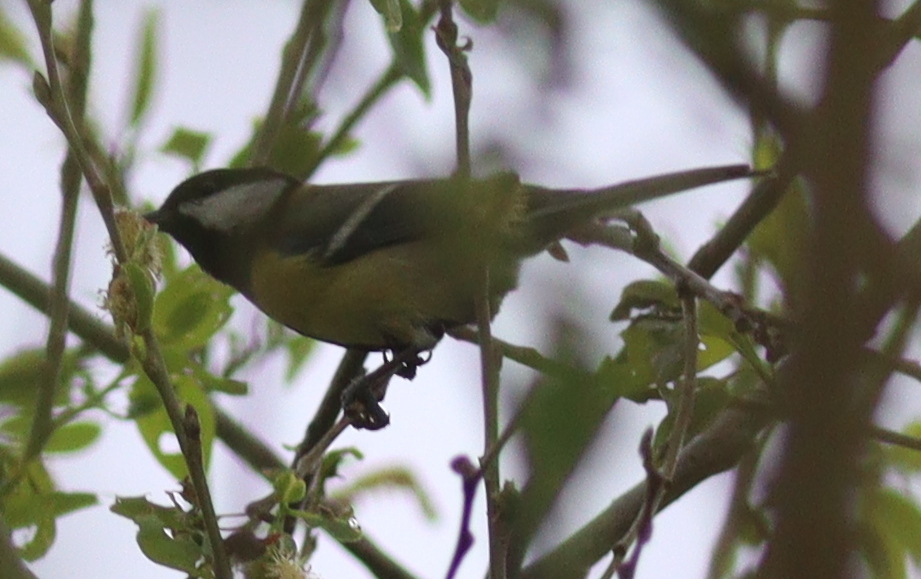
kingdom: Animalia
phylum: Chordata
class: Aves
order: Passeriformes
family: Paridae
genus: Parus
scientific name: Parus major
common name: Great tit
